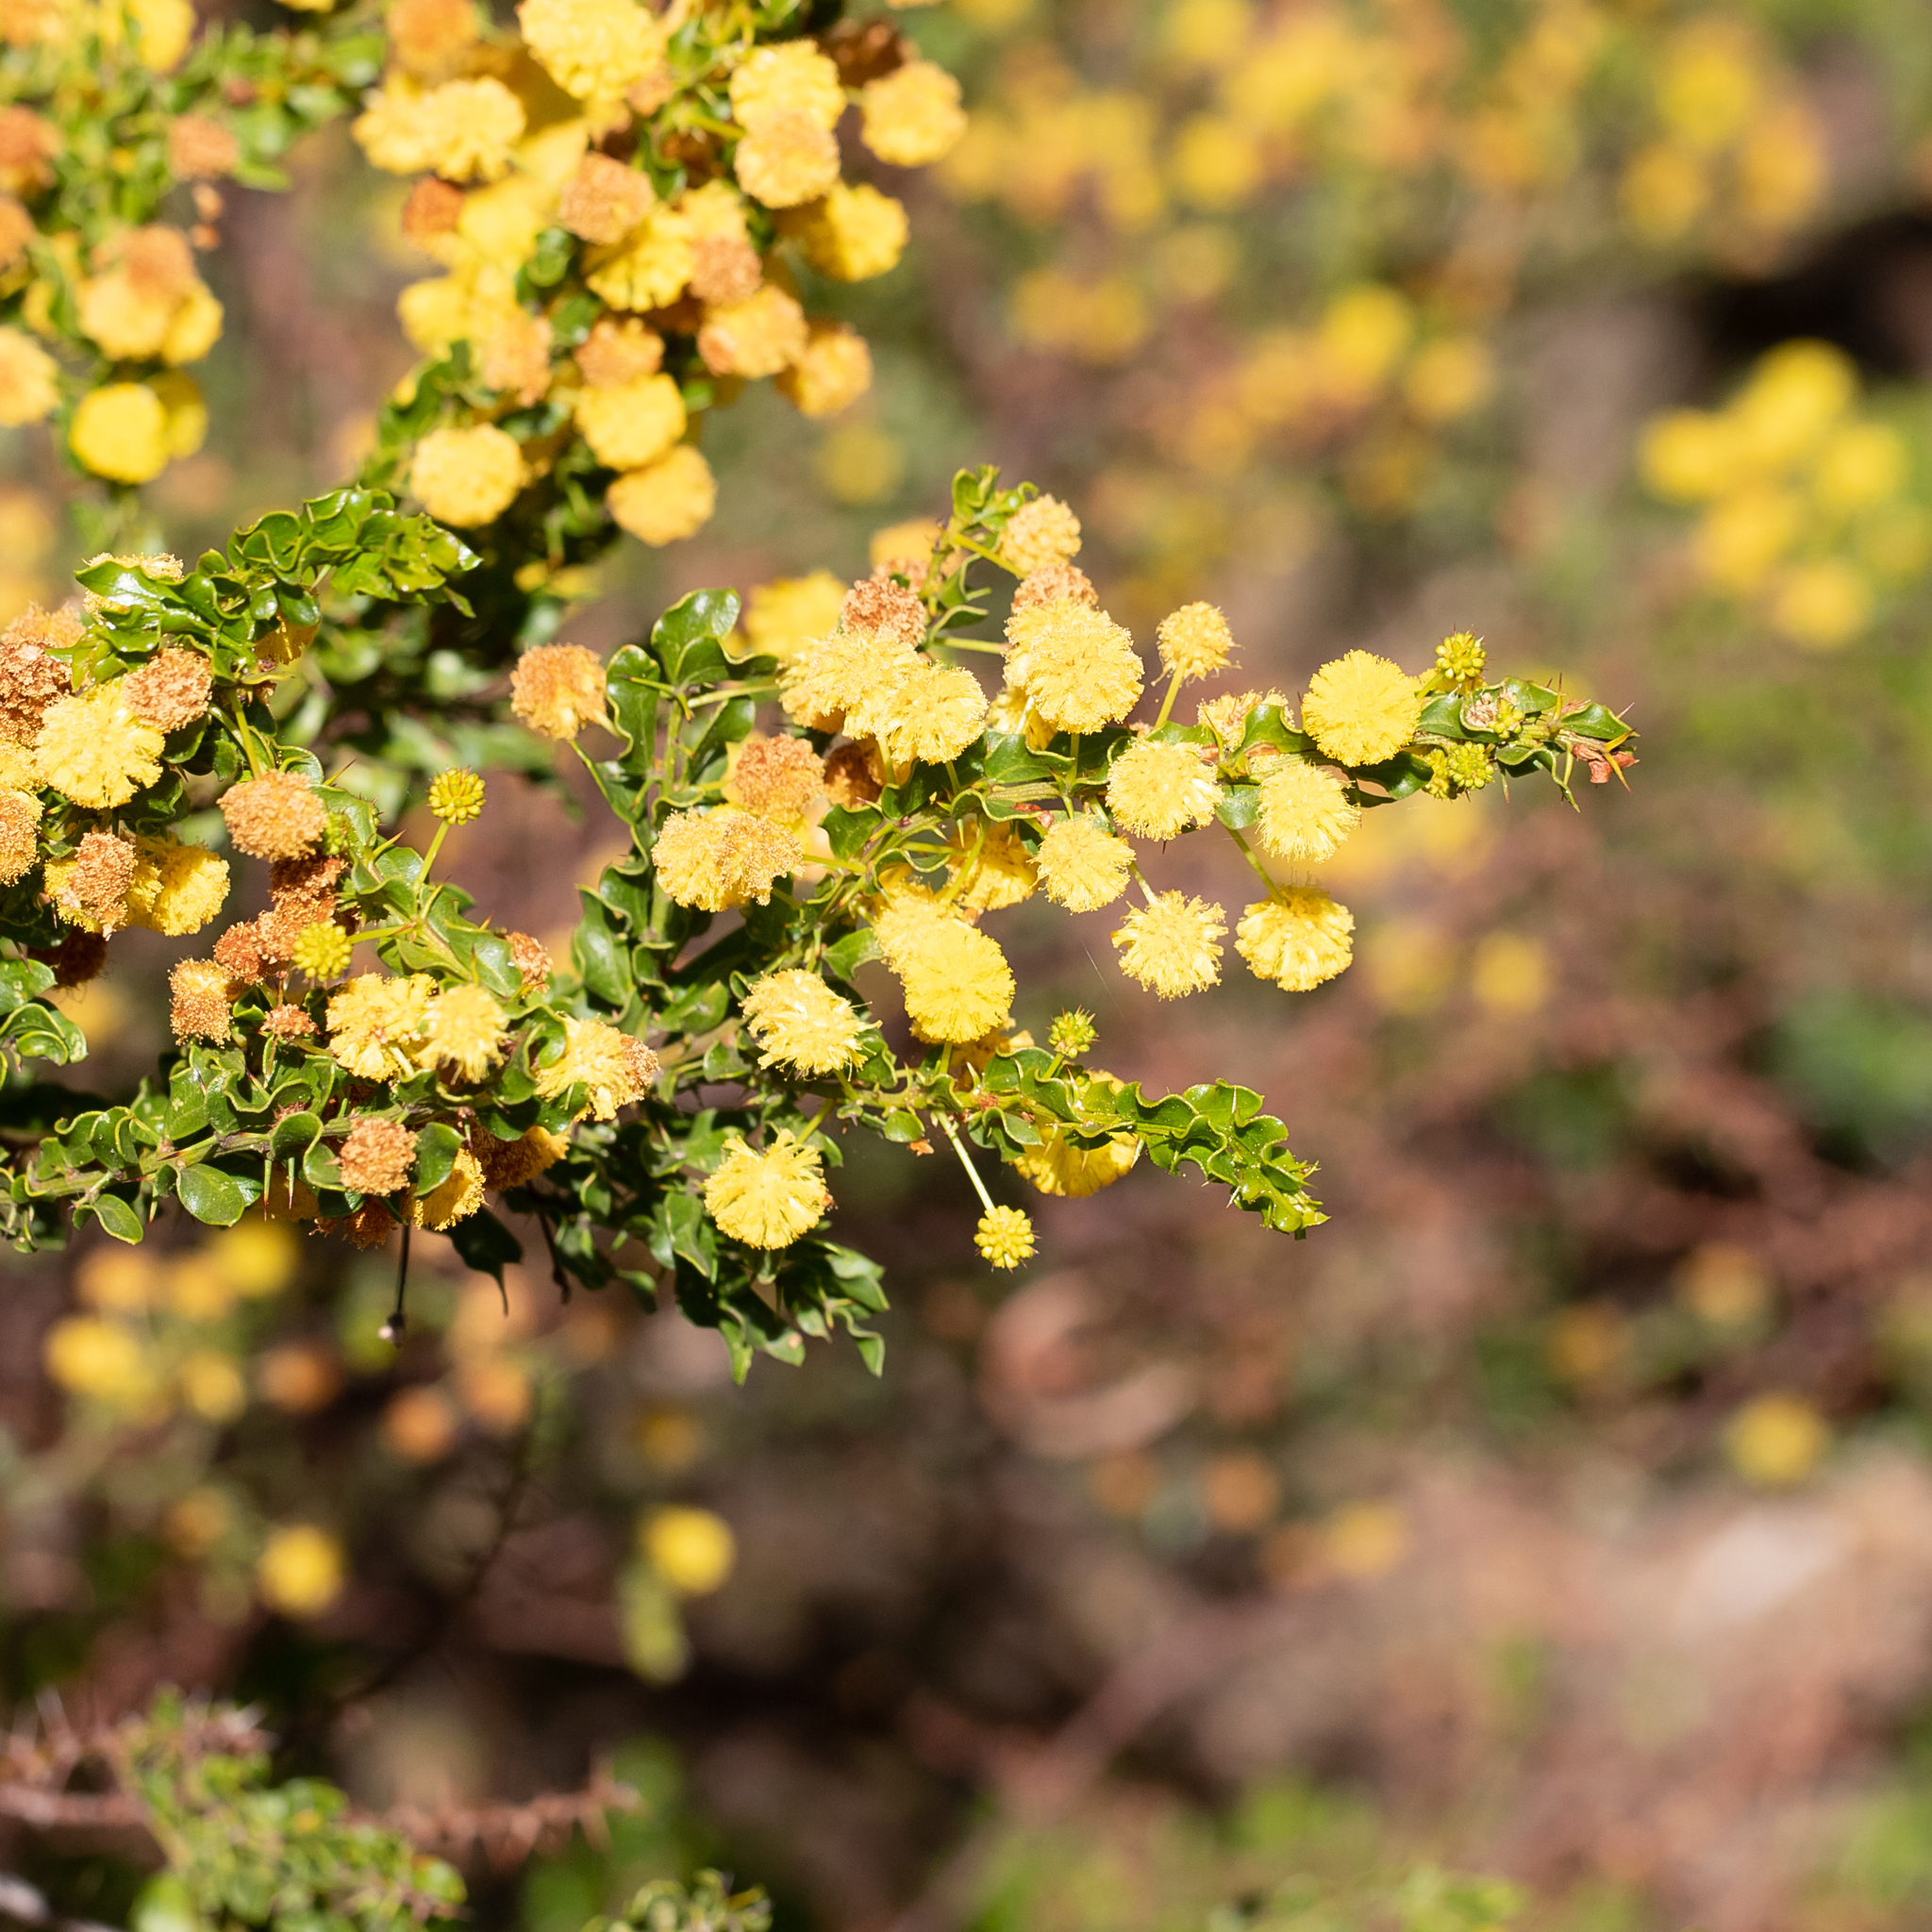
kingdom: Plantae
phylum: Tracheophyta
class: Magnoliopsida
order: Fabales
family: Fabaceae
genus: Acacia
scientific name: Acacia paradoxa
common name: Paradox acacia
